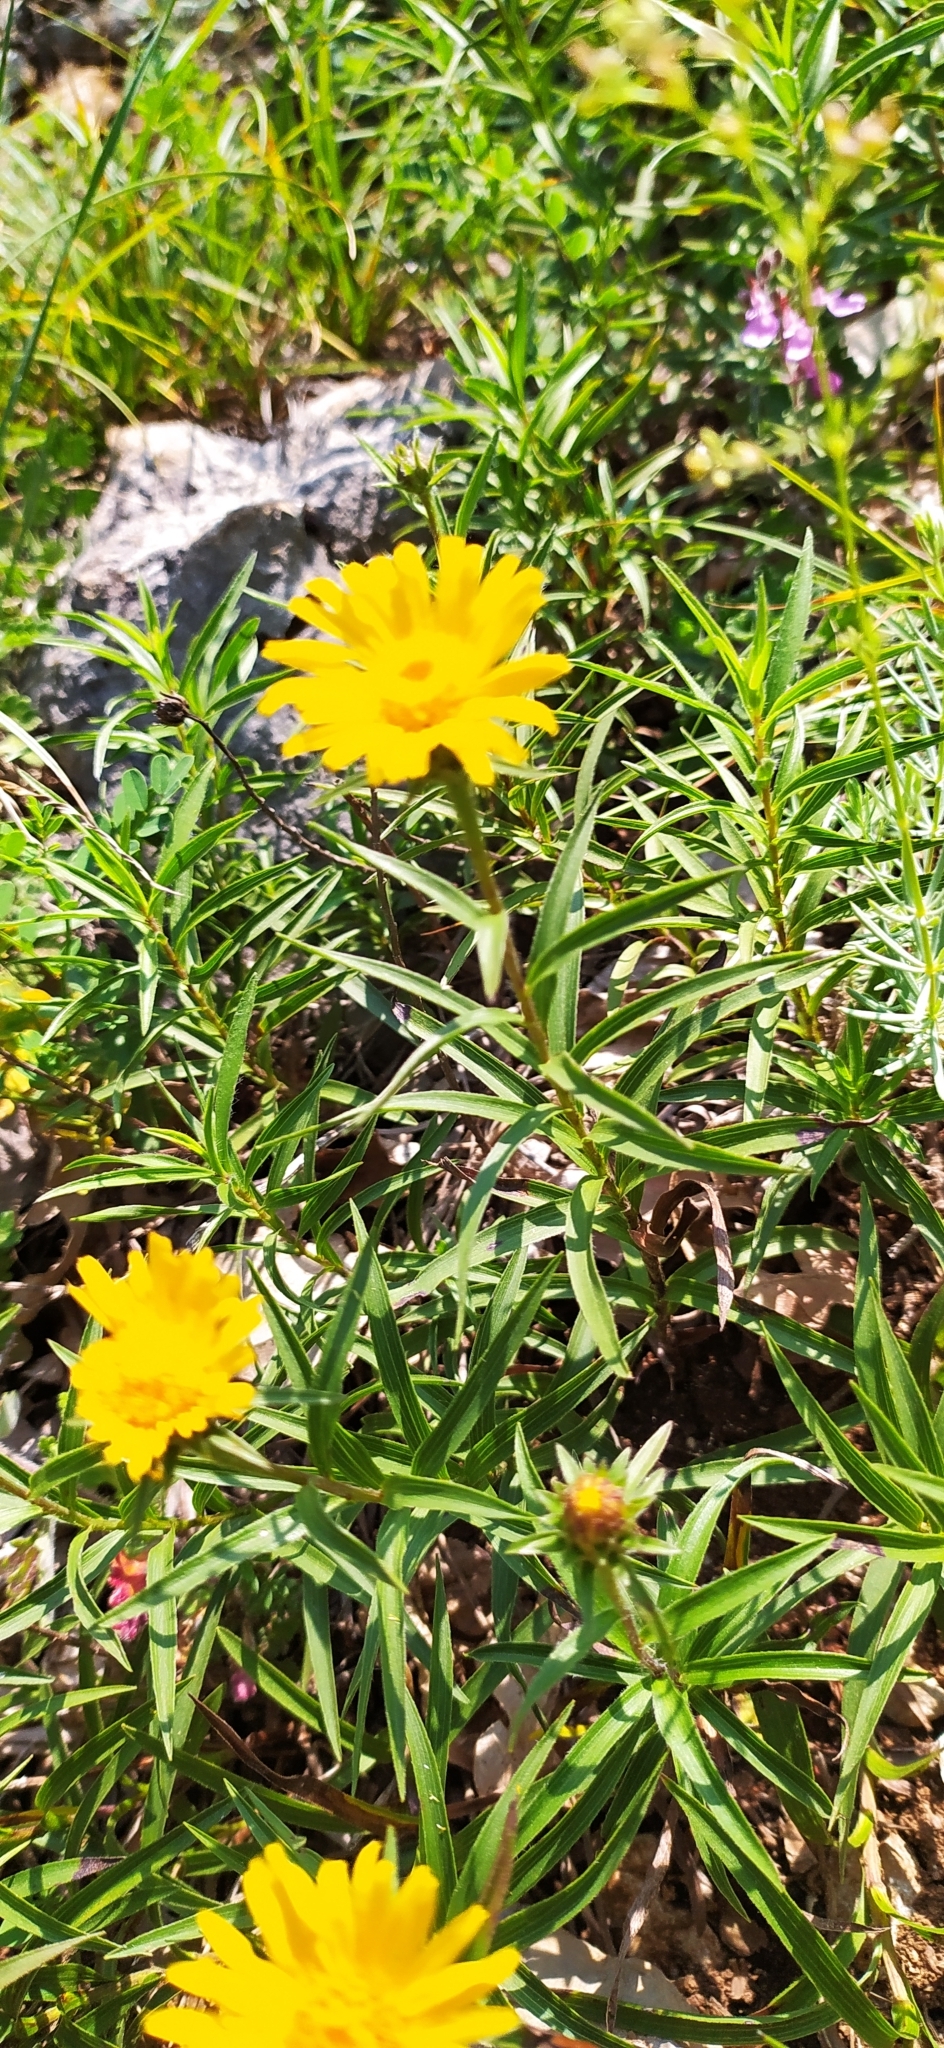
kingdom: Plantae
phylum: Tracheophyta
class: Magnoliopsida
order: Asterales
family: Asteraceae
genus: Pentanema
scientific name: Pentanema ensifolium
